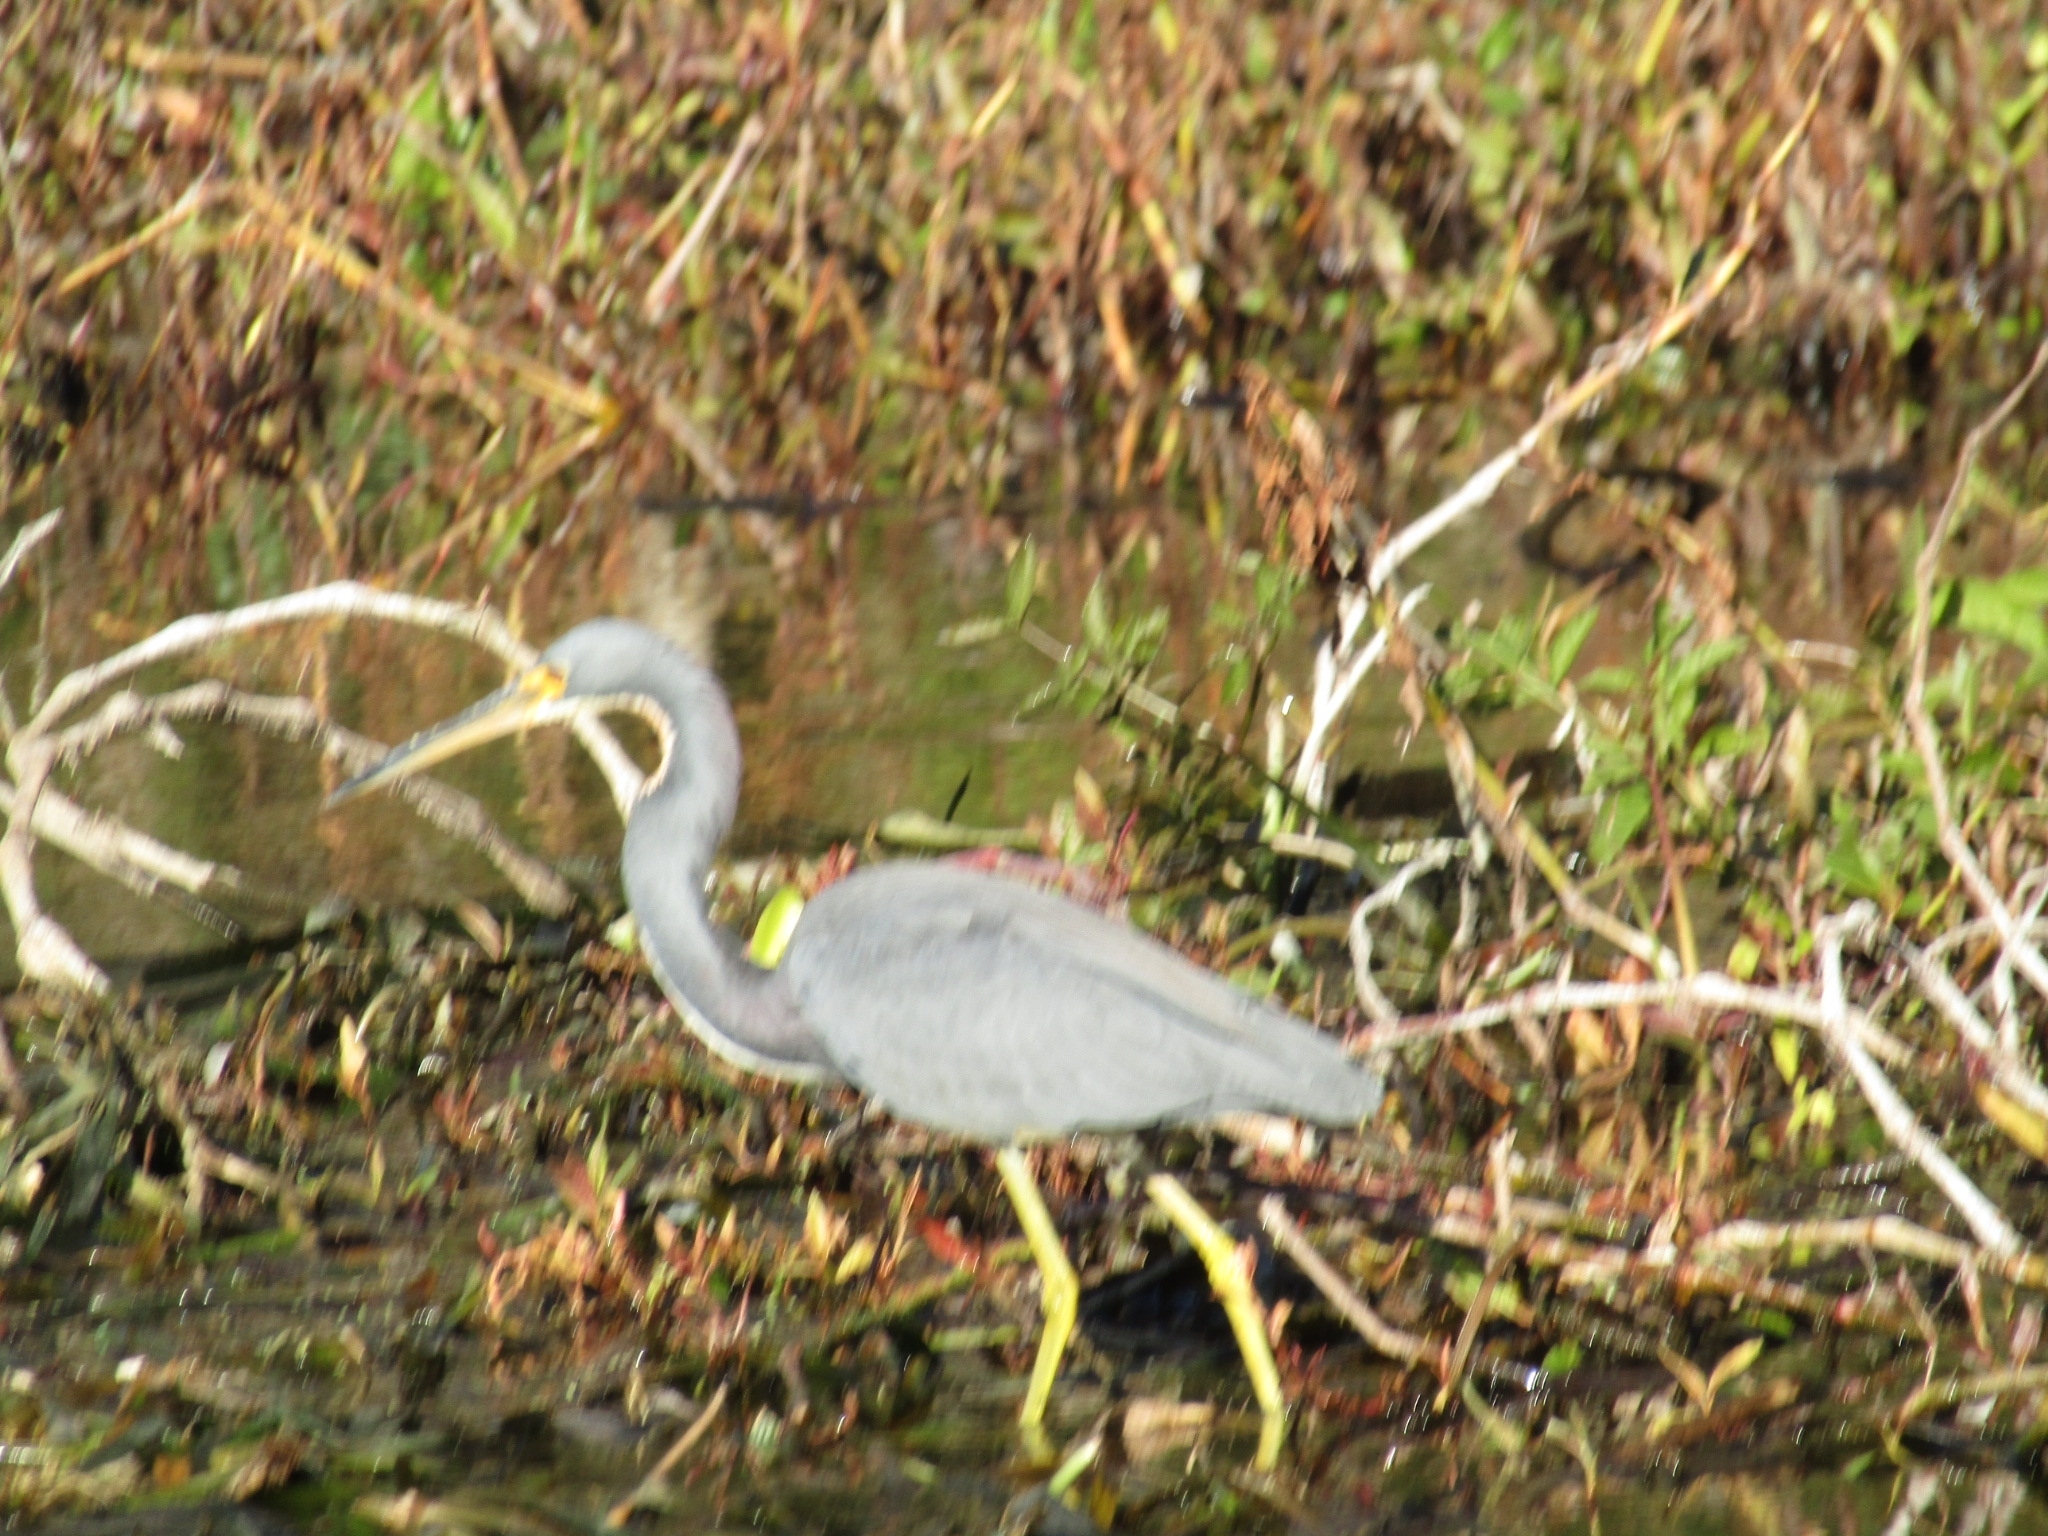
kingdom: Animalia
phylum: Chordata
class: Aves
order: Pelecaniformes
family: Ardeidae
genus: Egretta
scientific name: Egretta tricolor
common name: Tricolored heron
